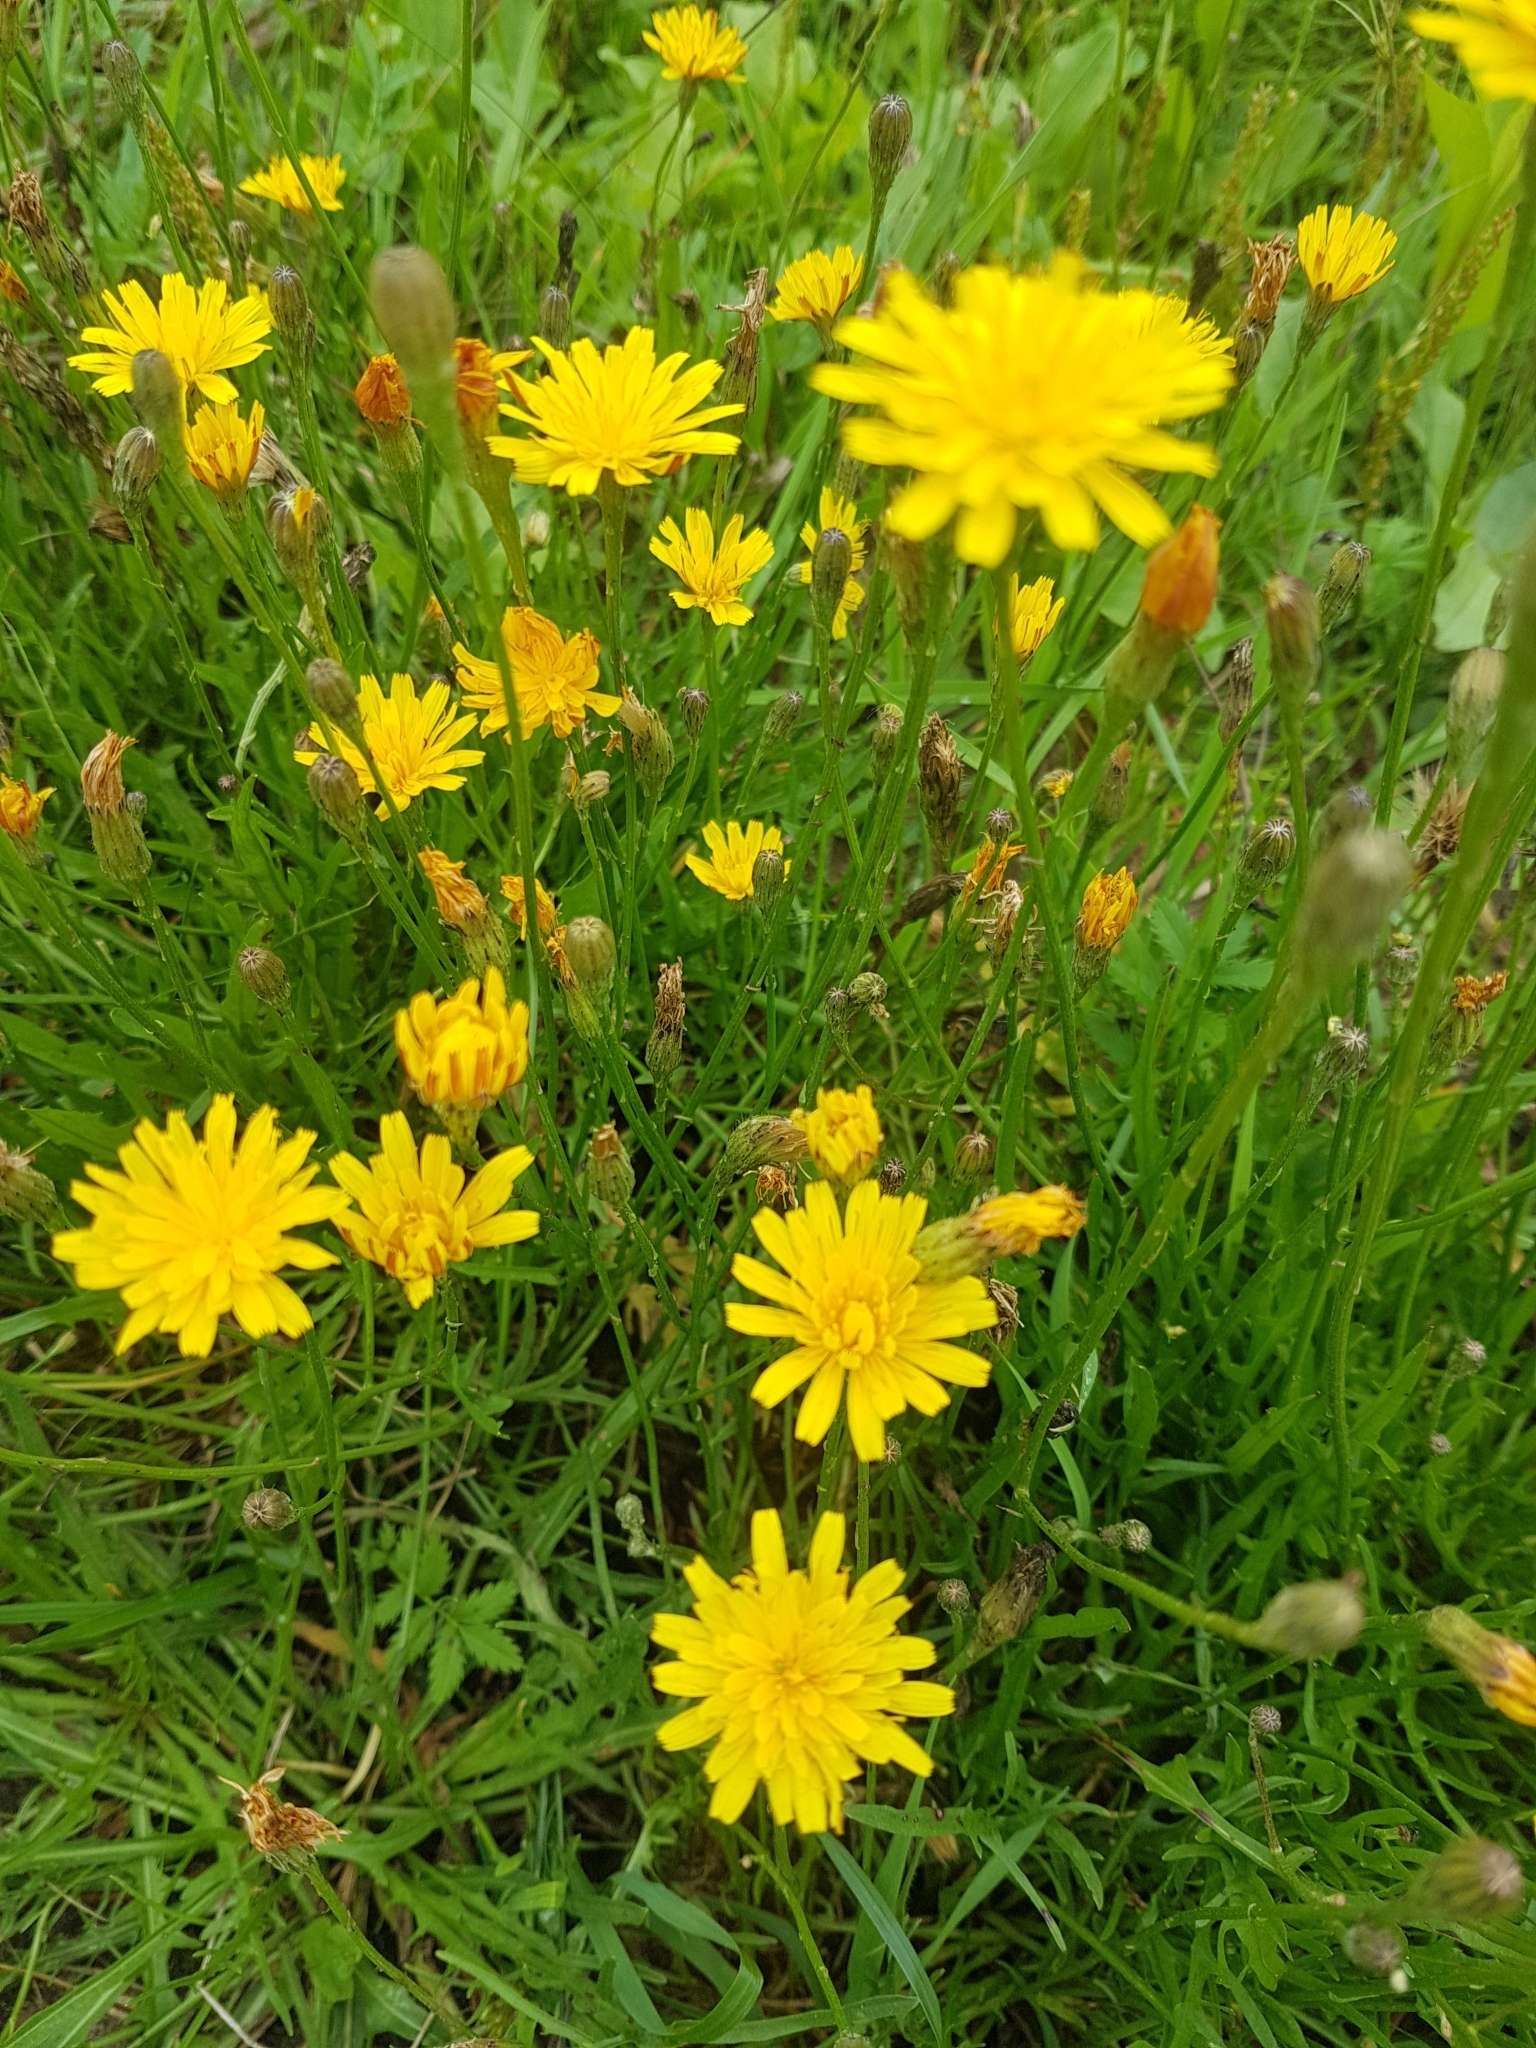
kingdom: Plantae
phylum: Tracheophyta
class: Magnoliopsida
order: Asterales
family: Asteraceae
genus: Scorzoneroides
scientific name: Scorzoneroides autumnalis
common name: Autumn hawkbit
